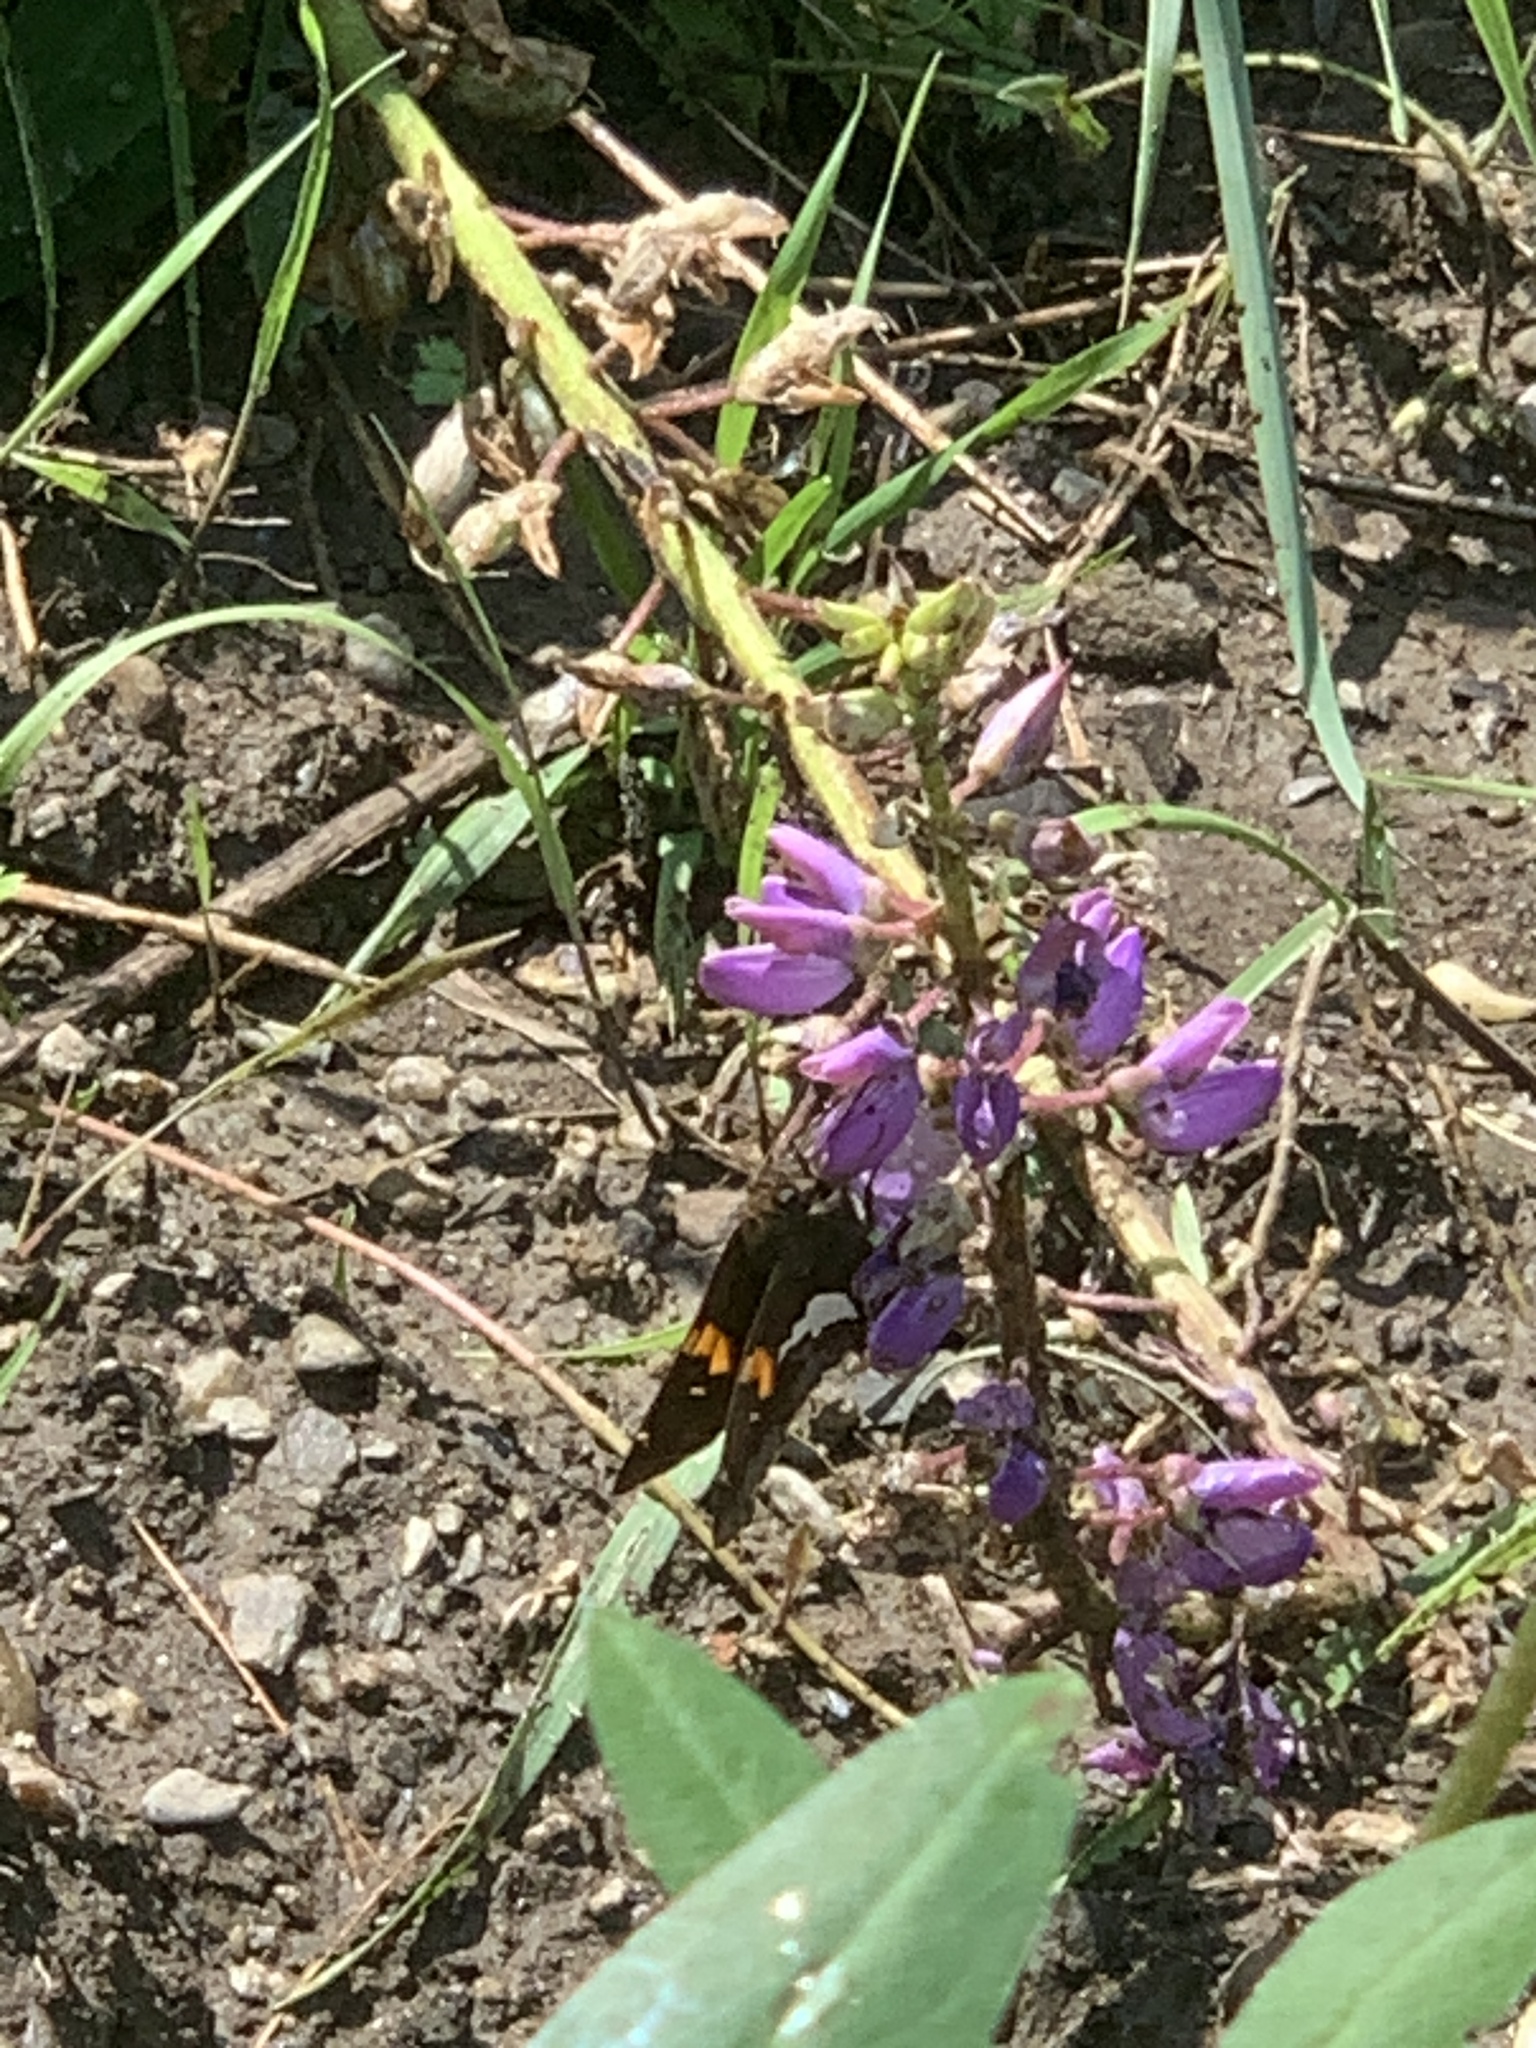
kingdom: Animalia
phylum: Arthropoda
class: Insecta
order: Lepidoptera
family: Hesperiidae
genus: Epargyreus
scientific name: Epargyreus clarus
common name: Silver-spotted skipper
